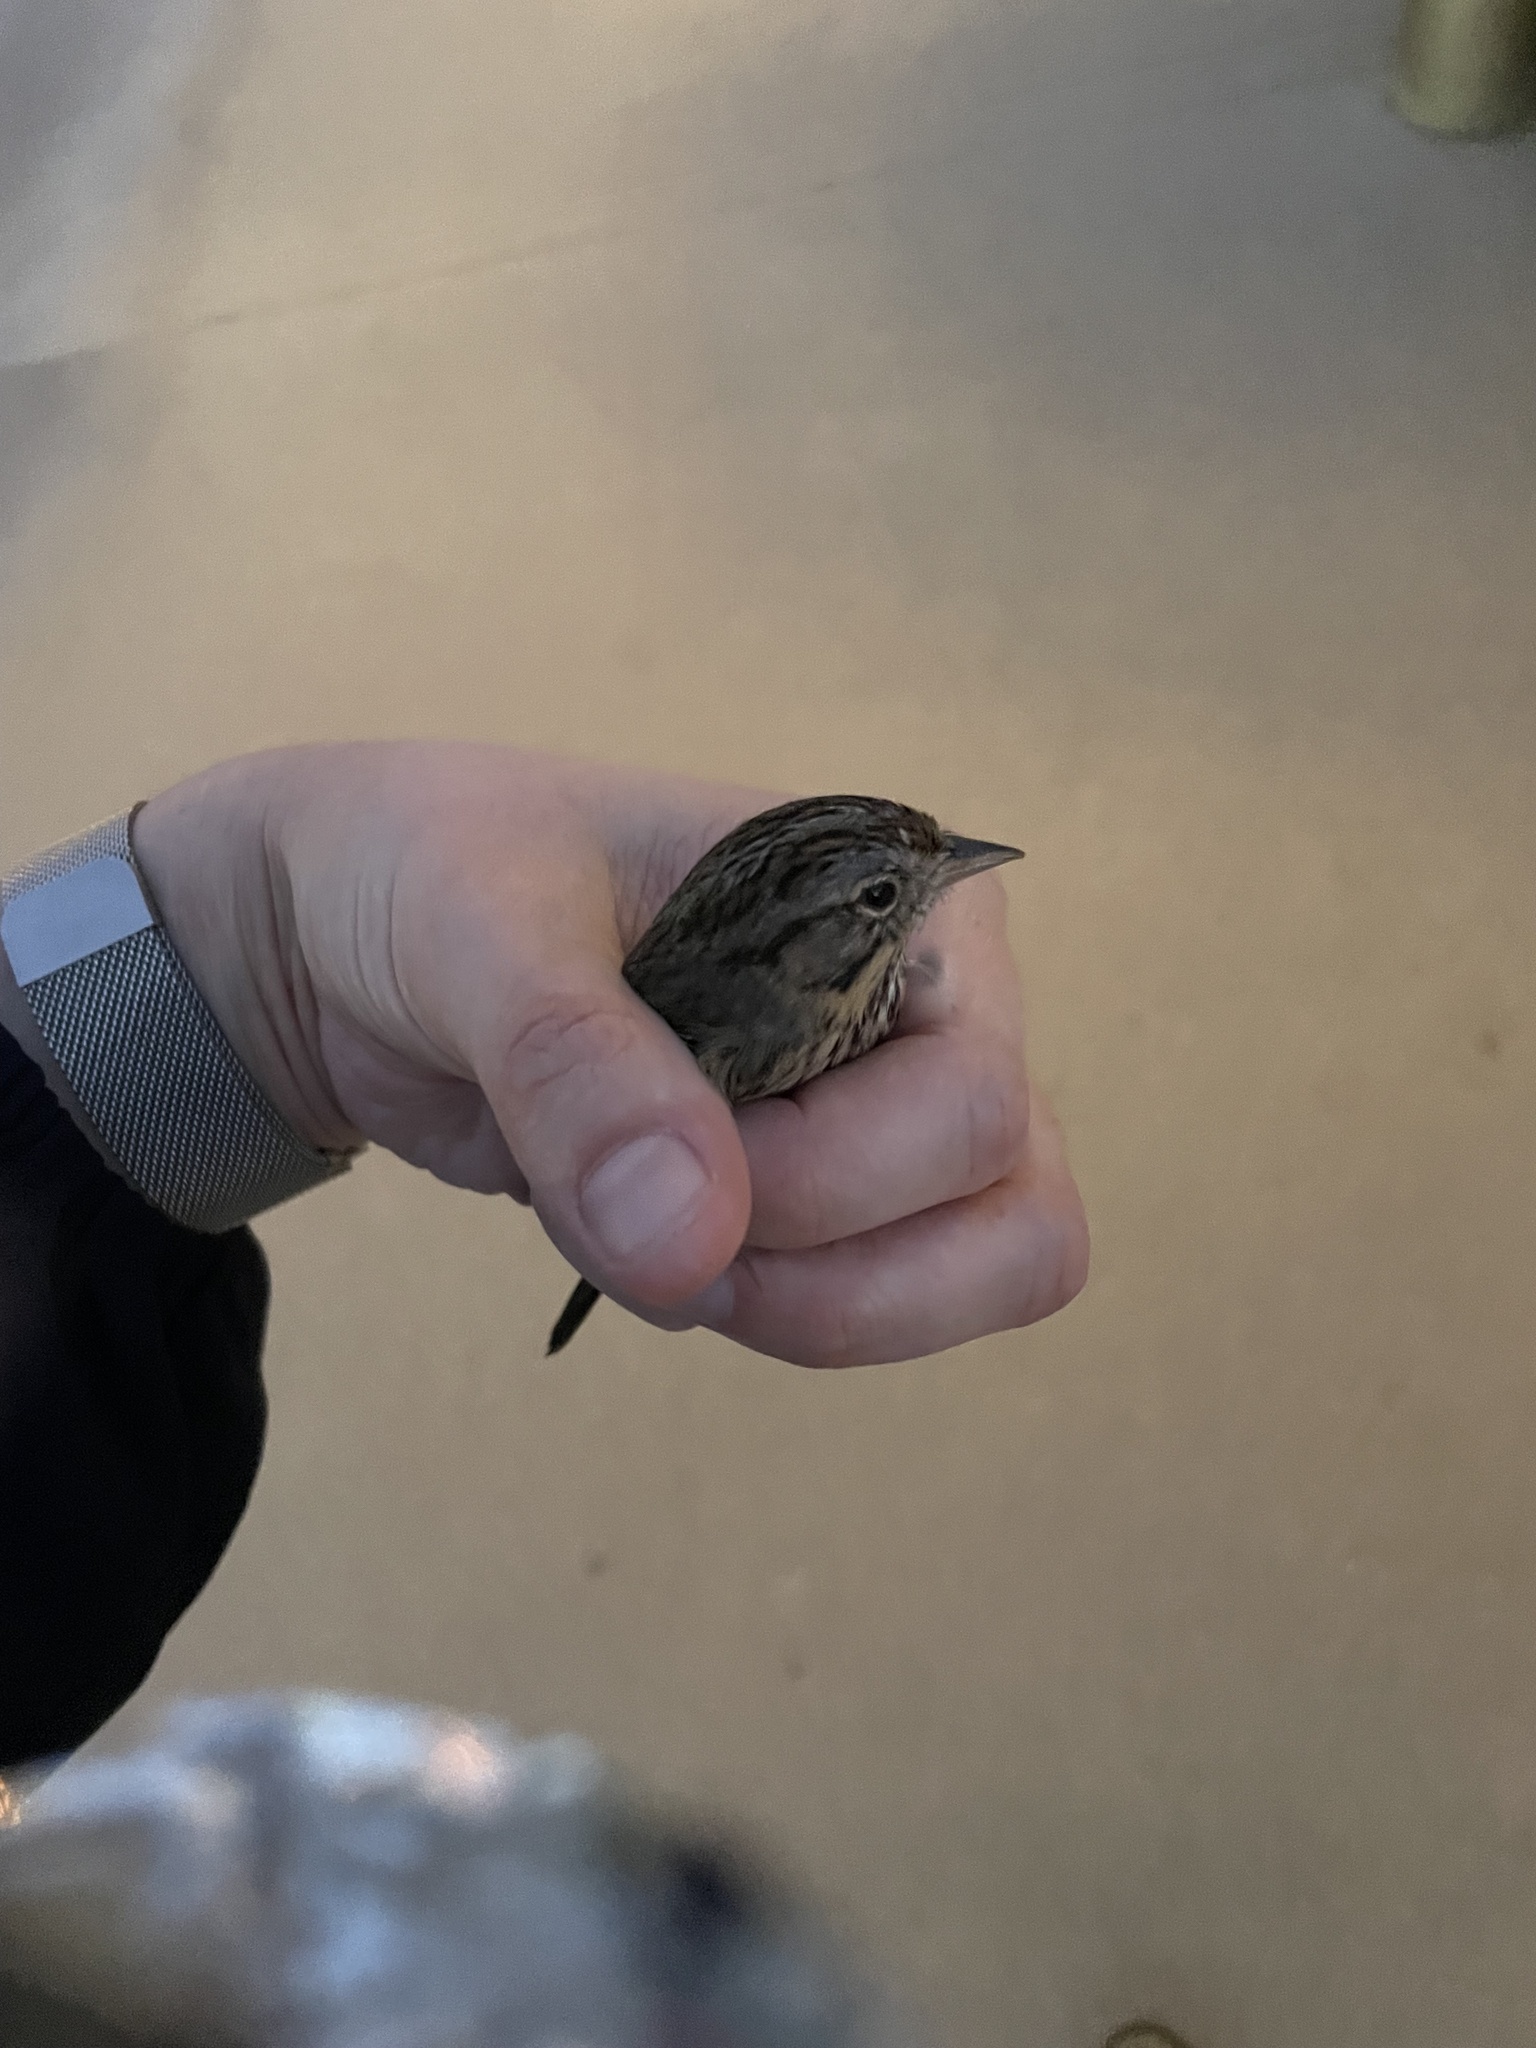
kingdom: Animalia
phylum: Chordata
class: Aves
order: Passeriformes
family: Passerellidae
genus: Melospiza
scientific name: Melospiza lincolnii
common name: Lincoln's sparrow
